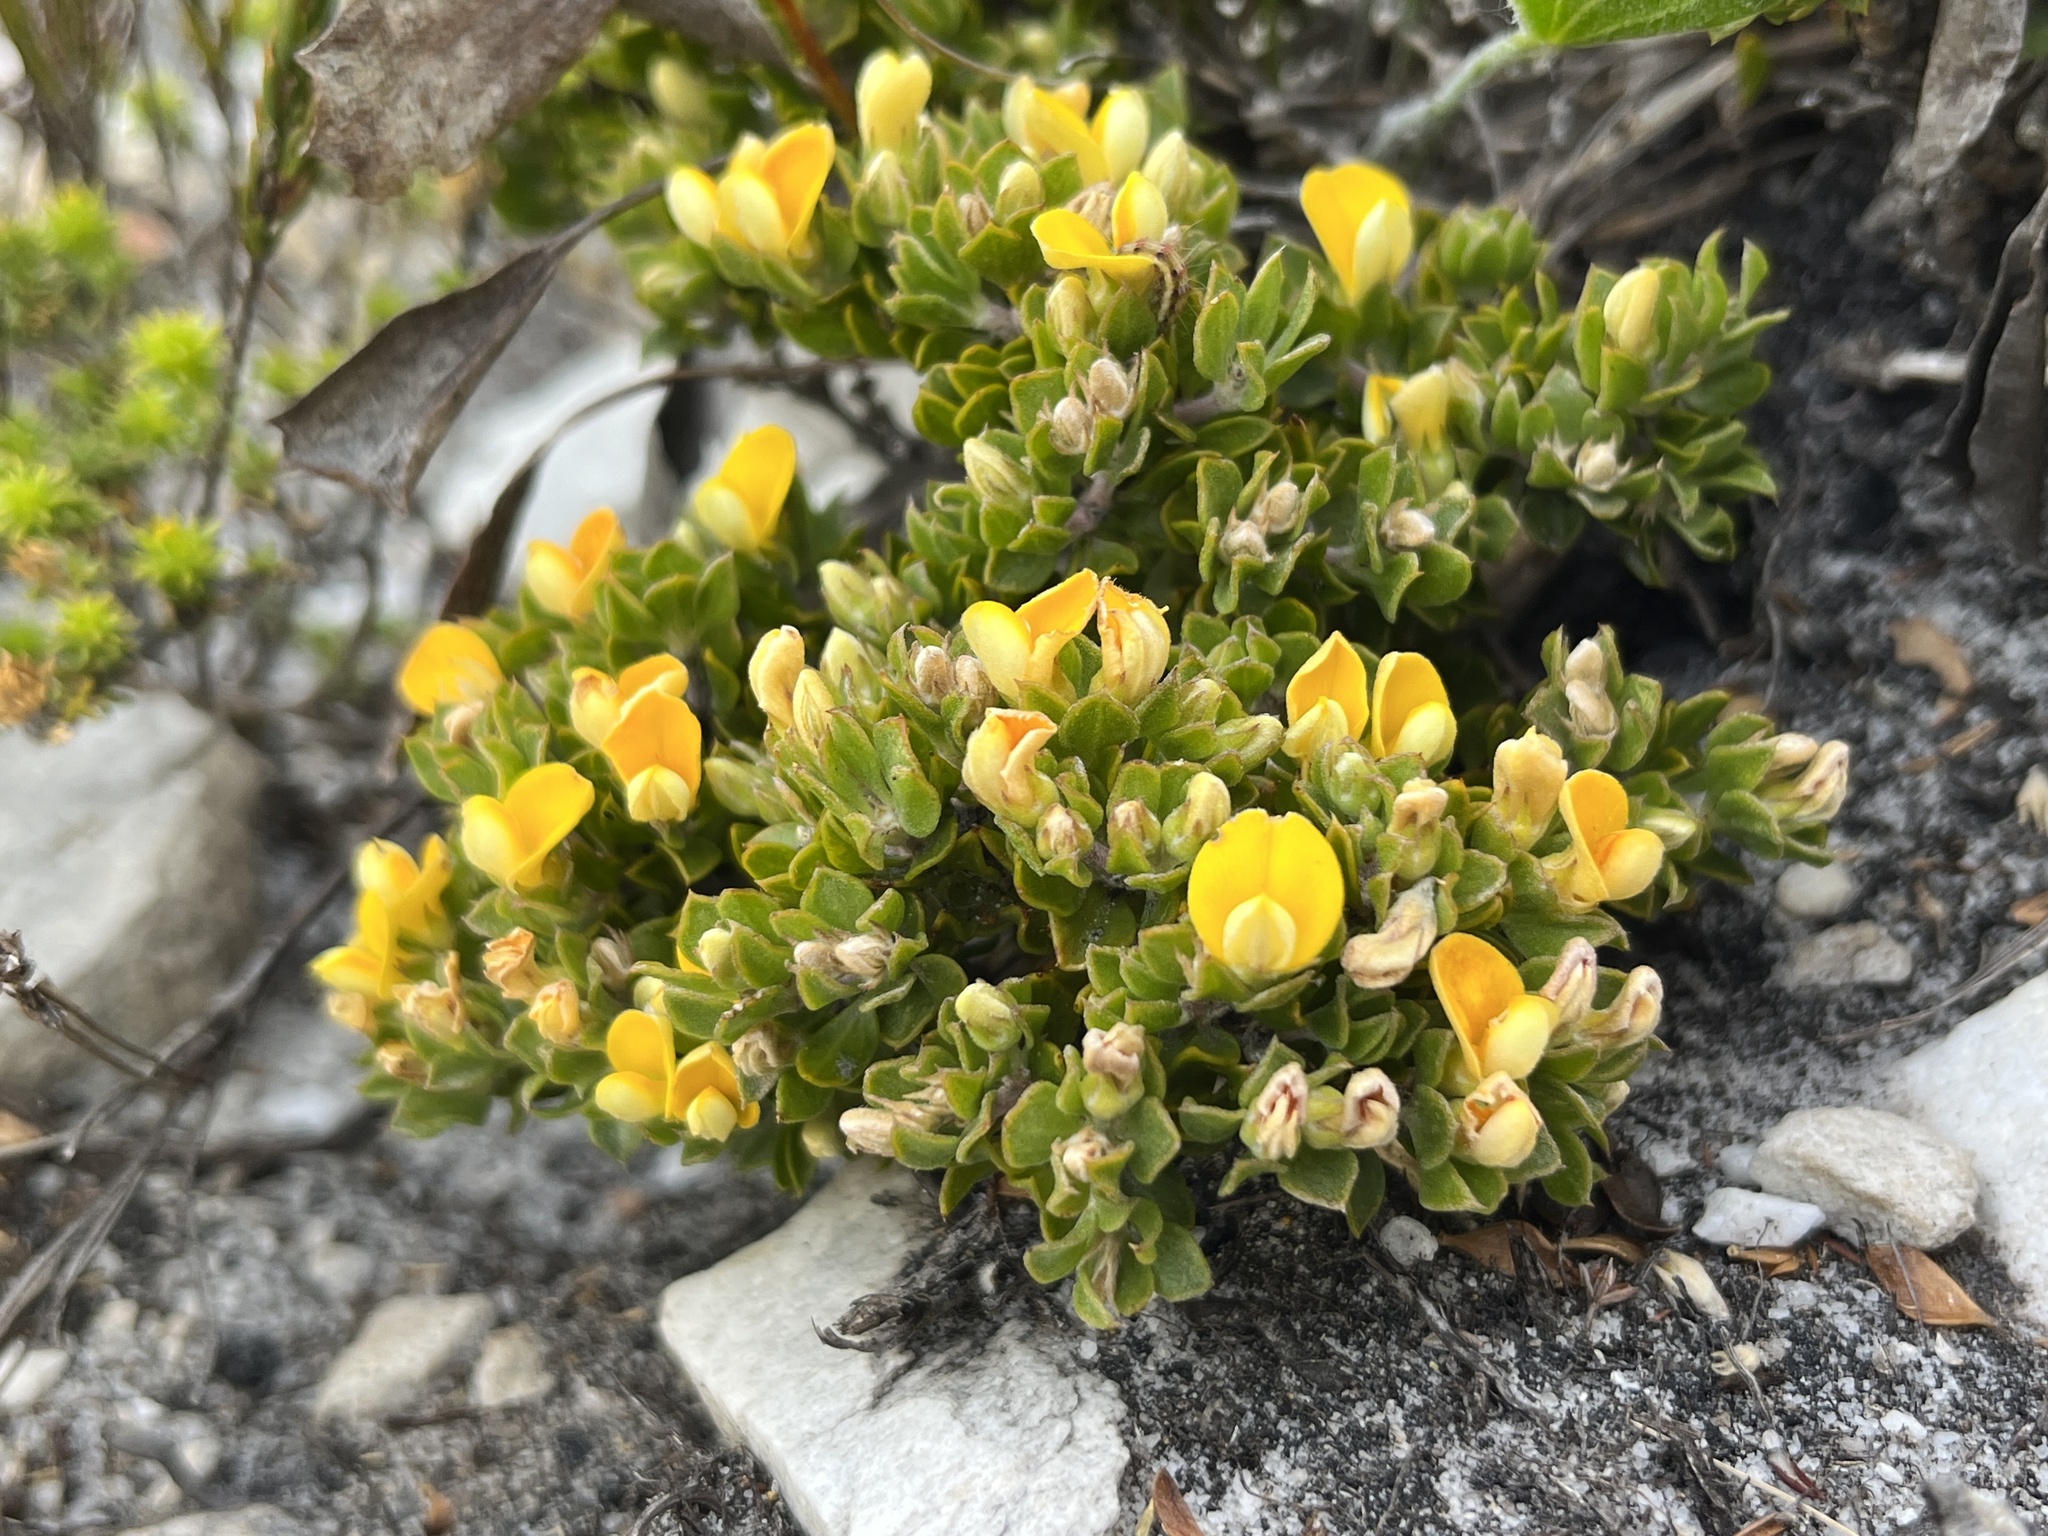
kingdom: Plantae
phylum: Tracheophyta
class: Magnoliopsida
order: Fabales
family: Fabaceae
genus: Aspalathus
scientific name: Aspalathus marginata
